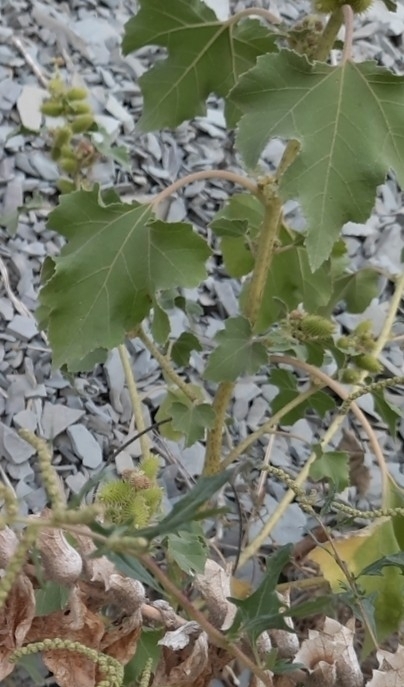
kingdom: Plantae
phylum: Tracheophyta
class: Magnoliopsida
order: Asterales
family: Asteraceae
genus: Xanthium
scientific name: Xanthium orientale
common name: Californian burr
